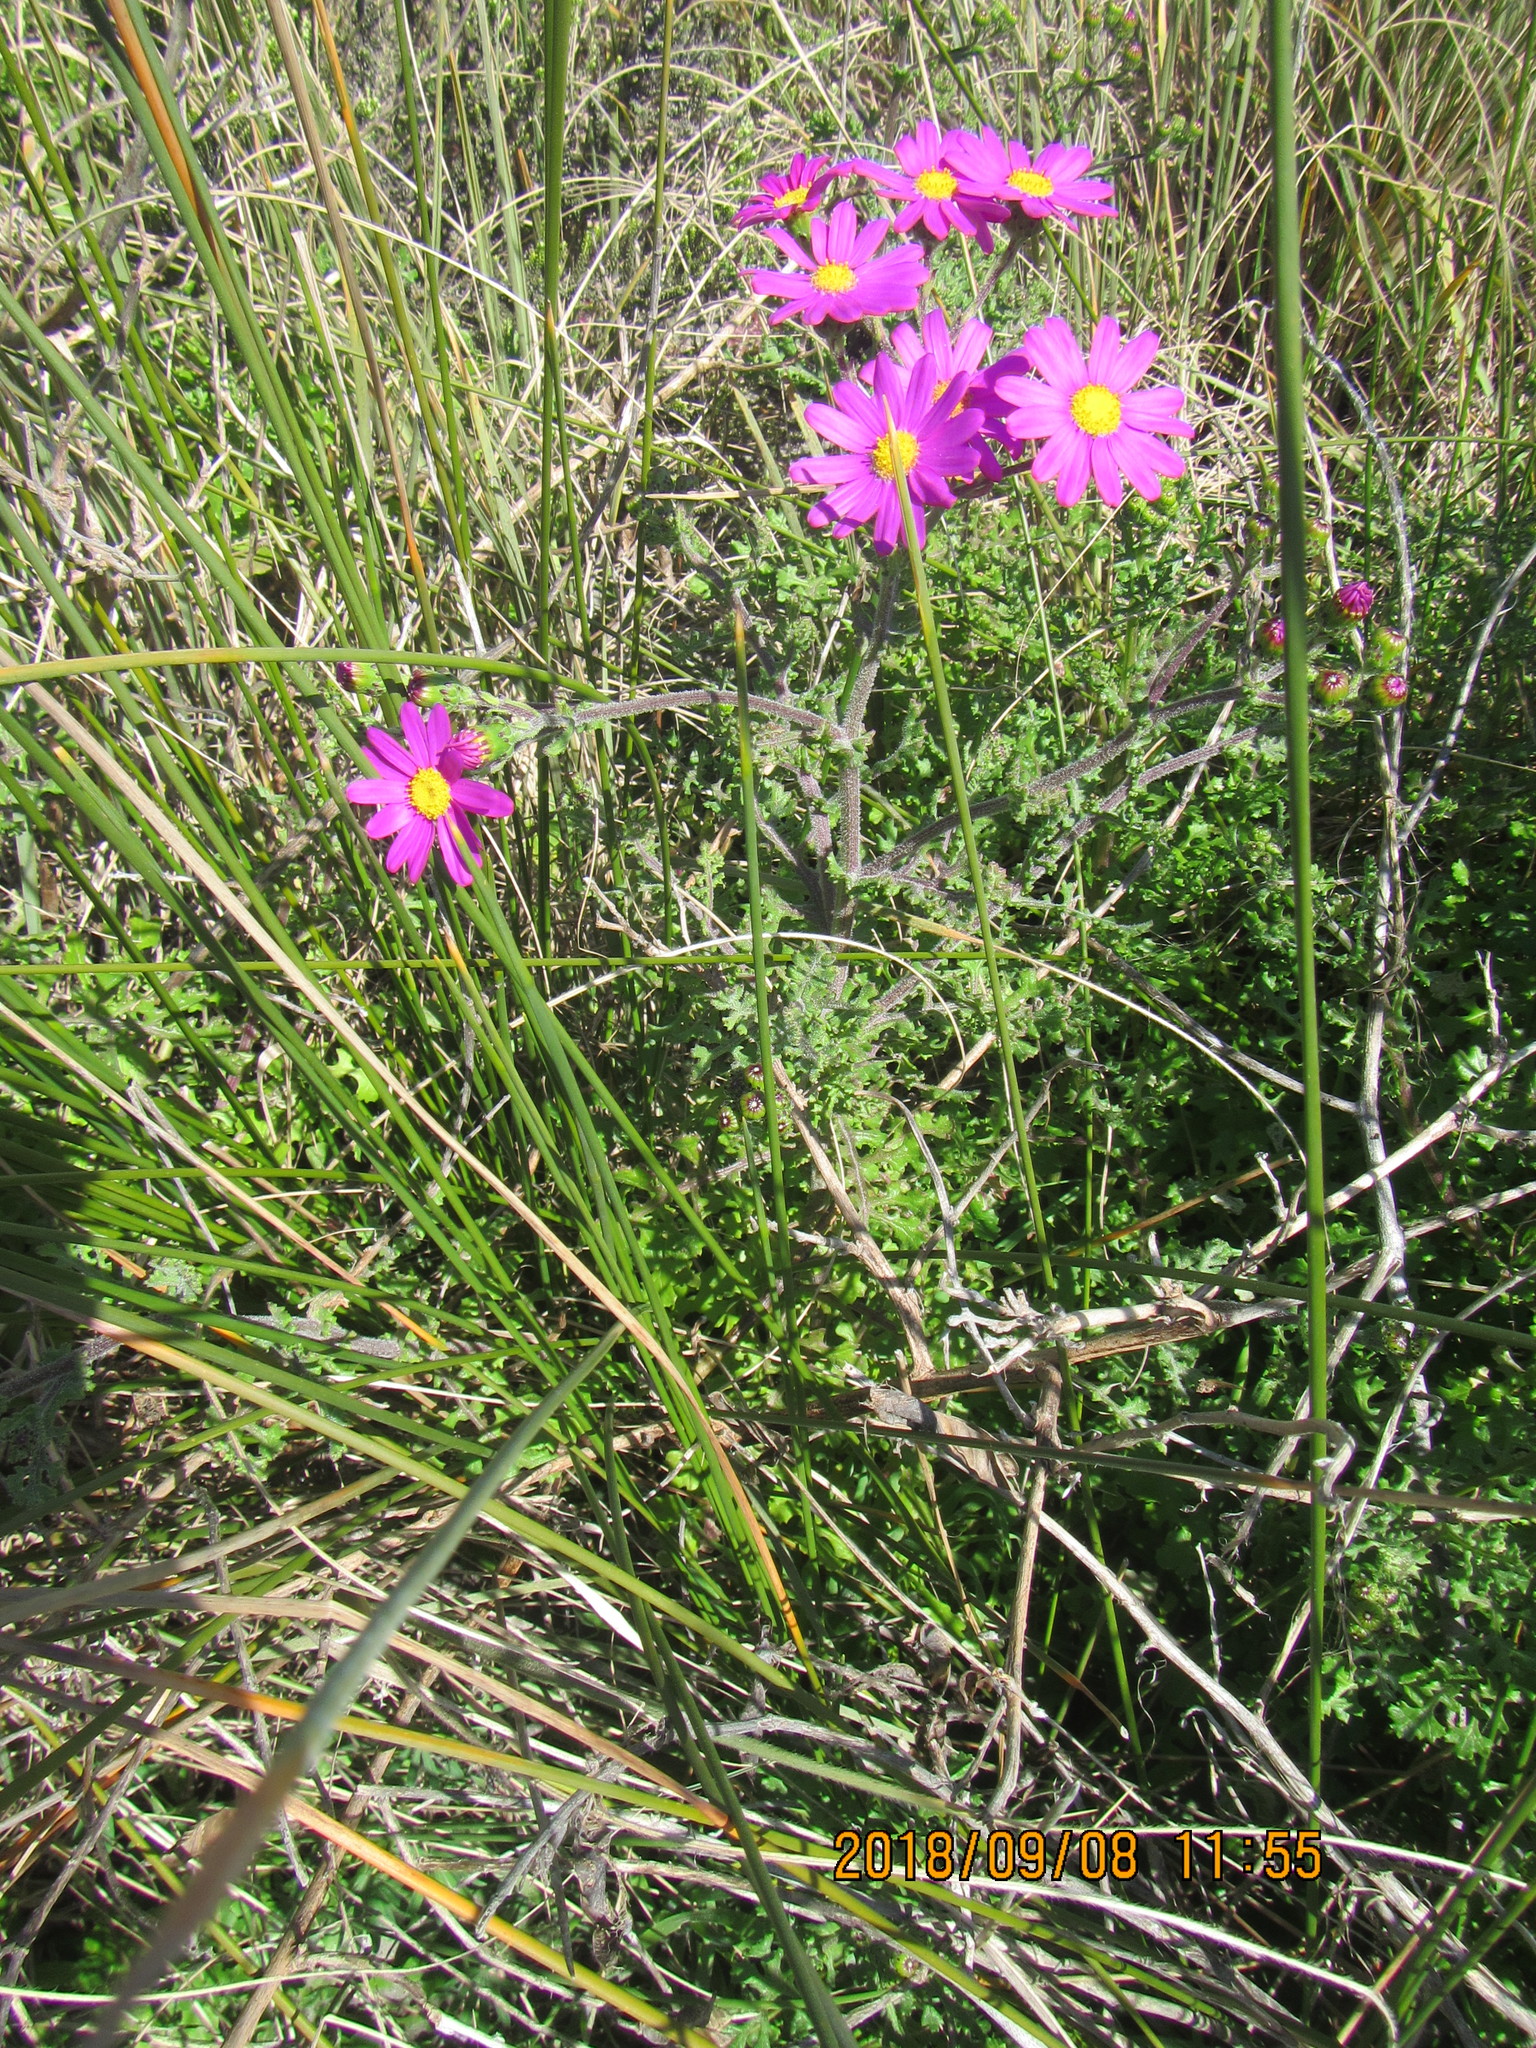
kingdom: Plantae
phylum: Tracheophyta
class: Magnoliopsida
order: Asterales
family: Asteraceae
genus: Senecio
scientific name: Senecio elegans
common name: Purple groundsel
